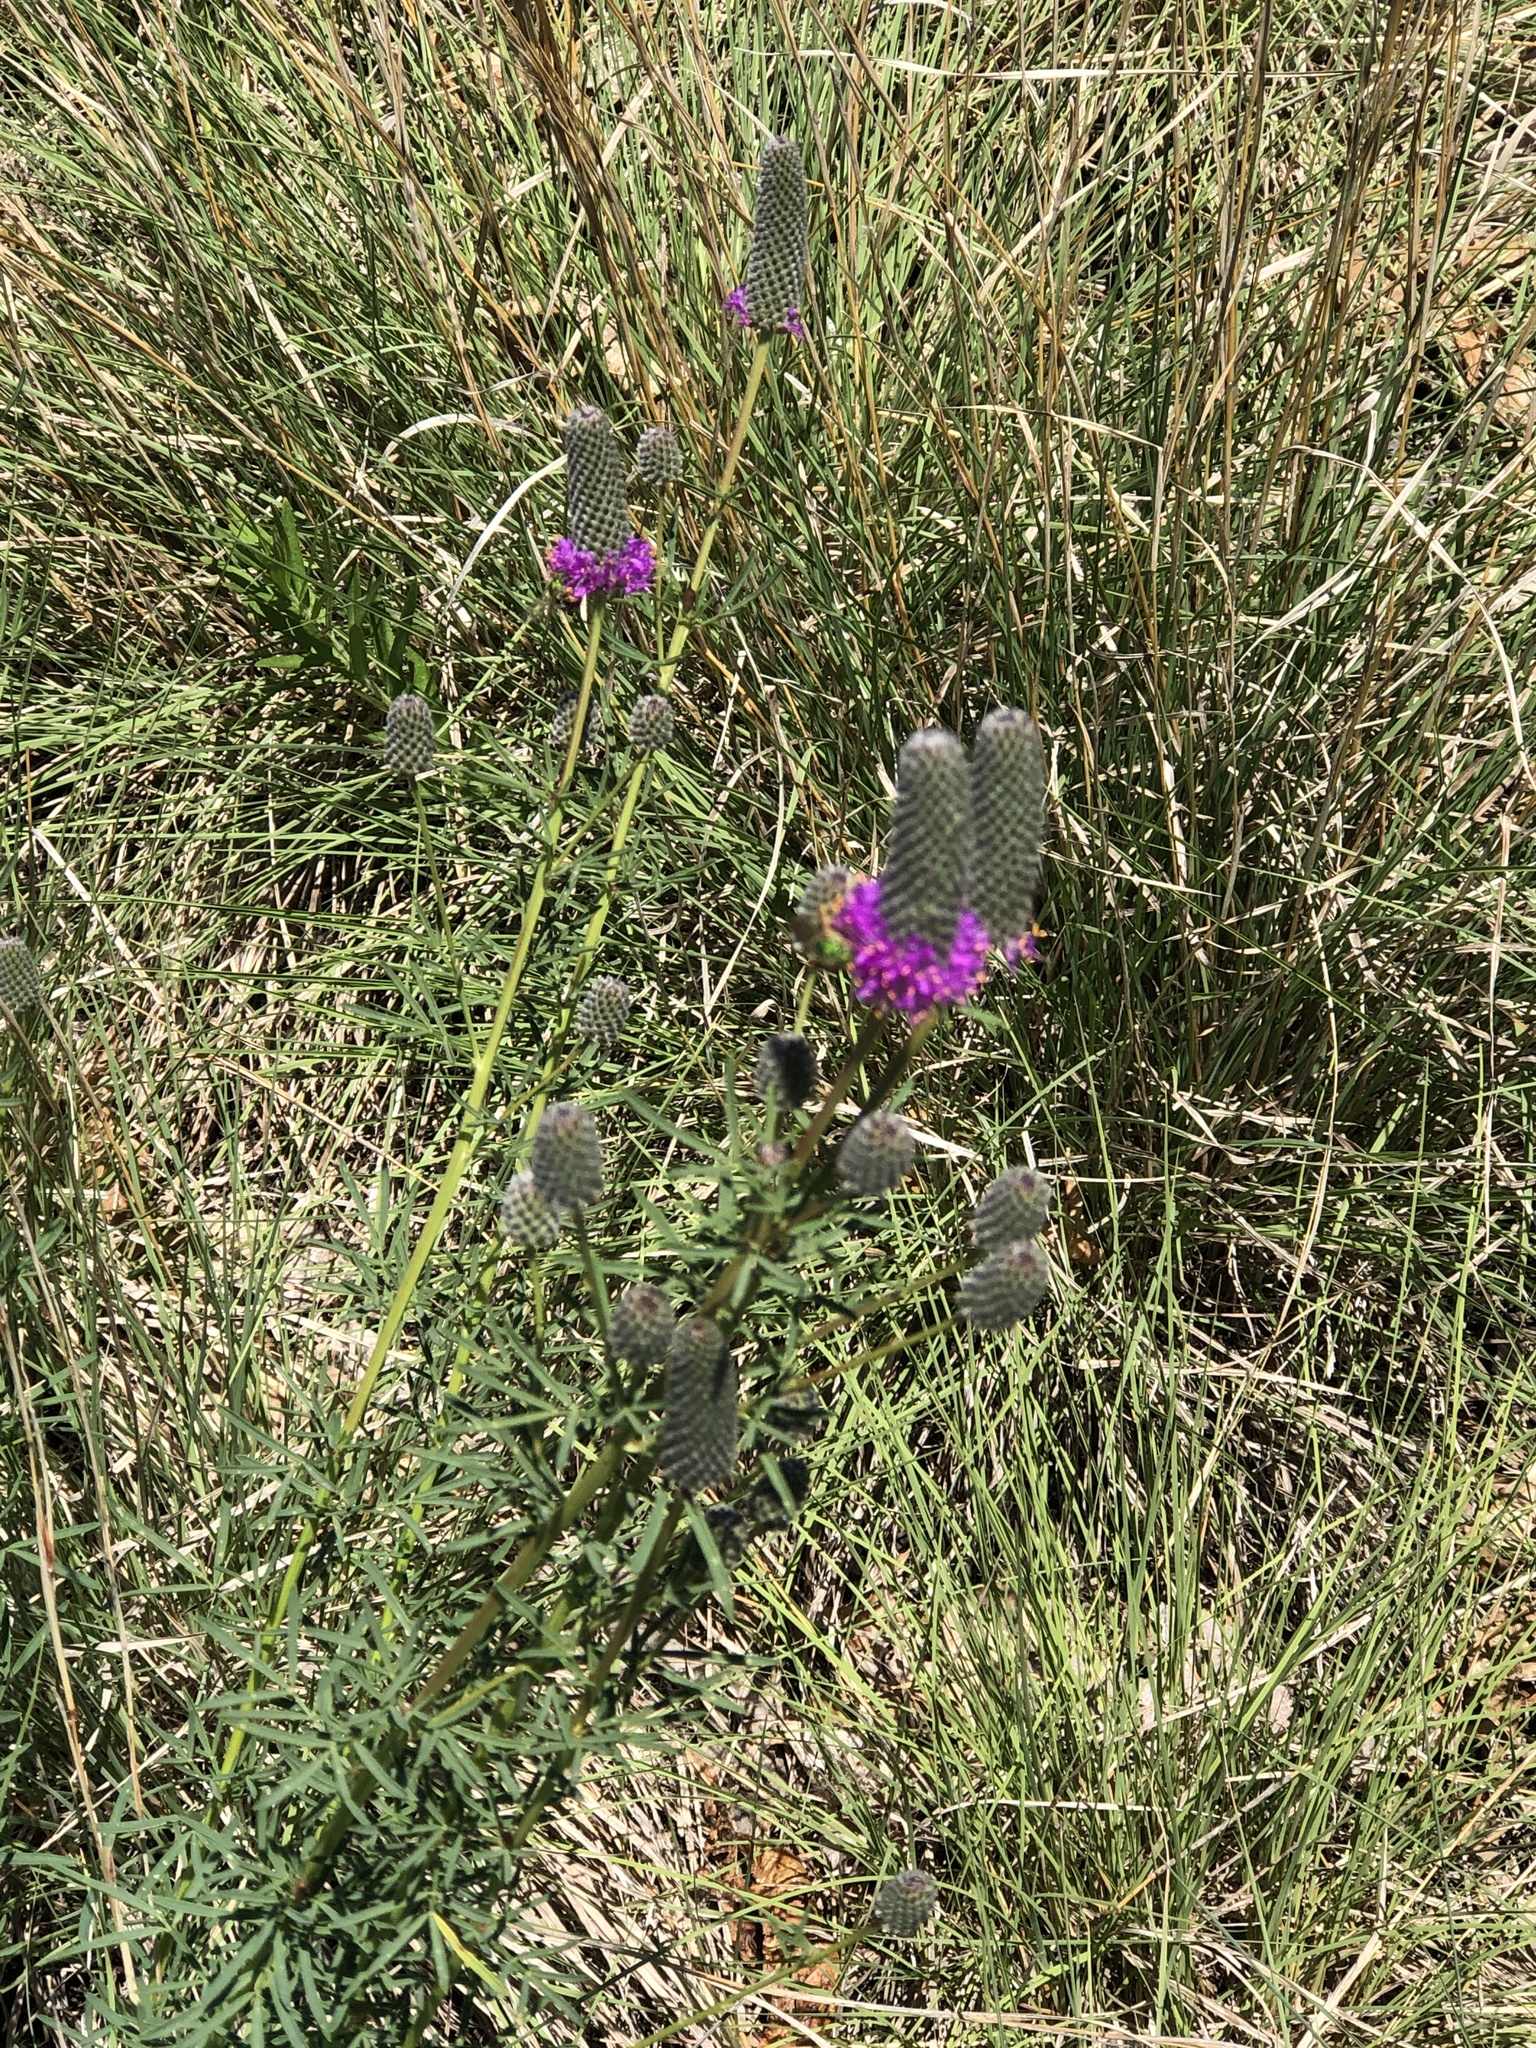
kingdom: Plantae
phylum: Tracheophyta
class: Magnoliopsida
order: Fabales
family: Fabaceae
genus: Dalea
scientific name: Dalea purpurea
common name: Purple prairie-clover
